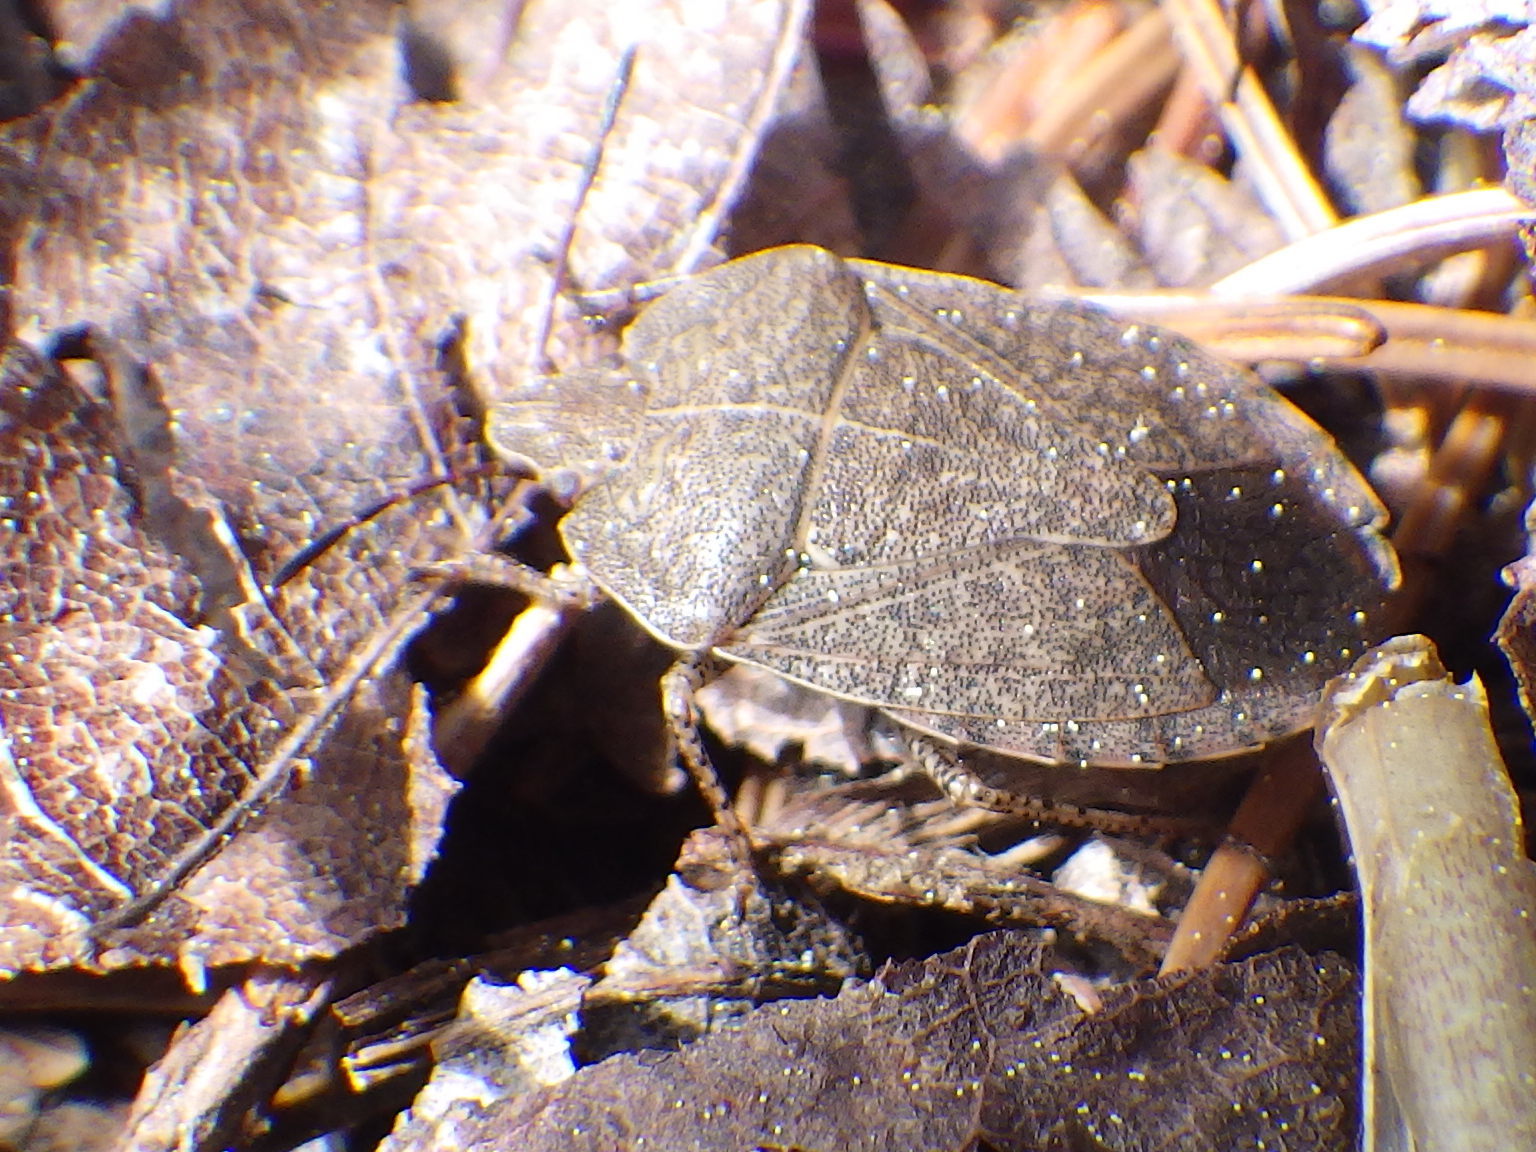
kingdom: Animalia
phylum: Arthropoda
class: Insecta
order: Hemiptera
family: Pentatomidae
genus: Menecles
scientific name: Menecles insertus
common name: Elf shoe stink bug
